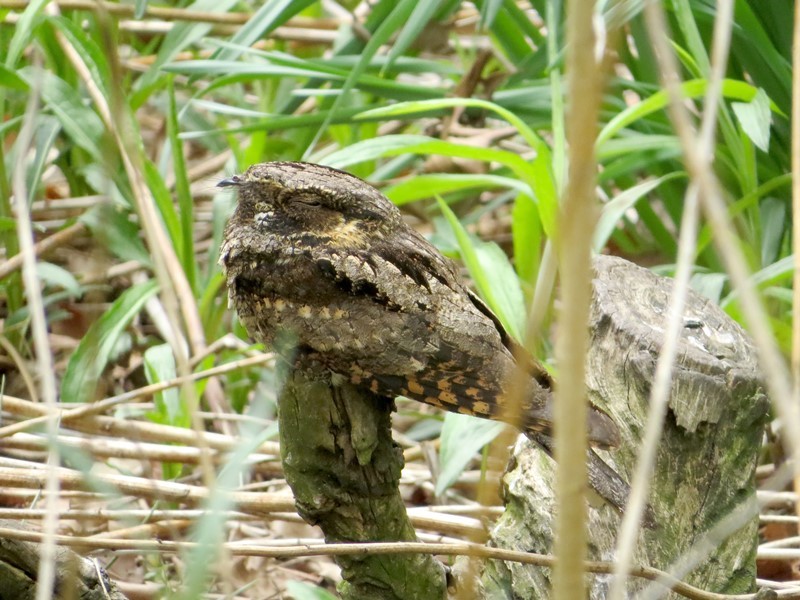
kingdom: Animalia
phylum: Chordata
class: Aves
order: Caprimulgiformes
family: Caprimulgidae
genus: Antrostomus
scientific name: Antrostomus vociferus
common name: Eastern whip-poor-will
